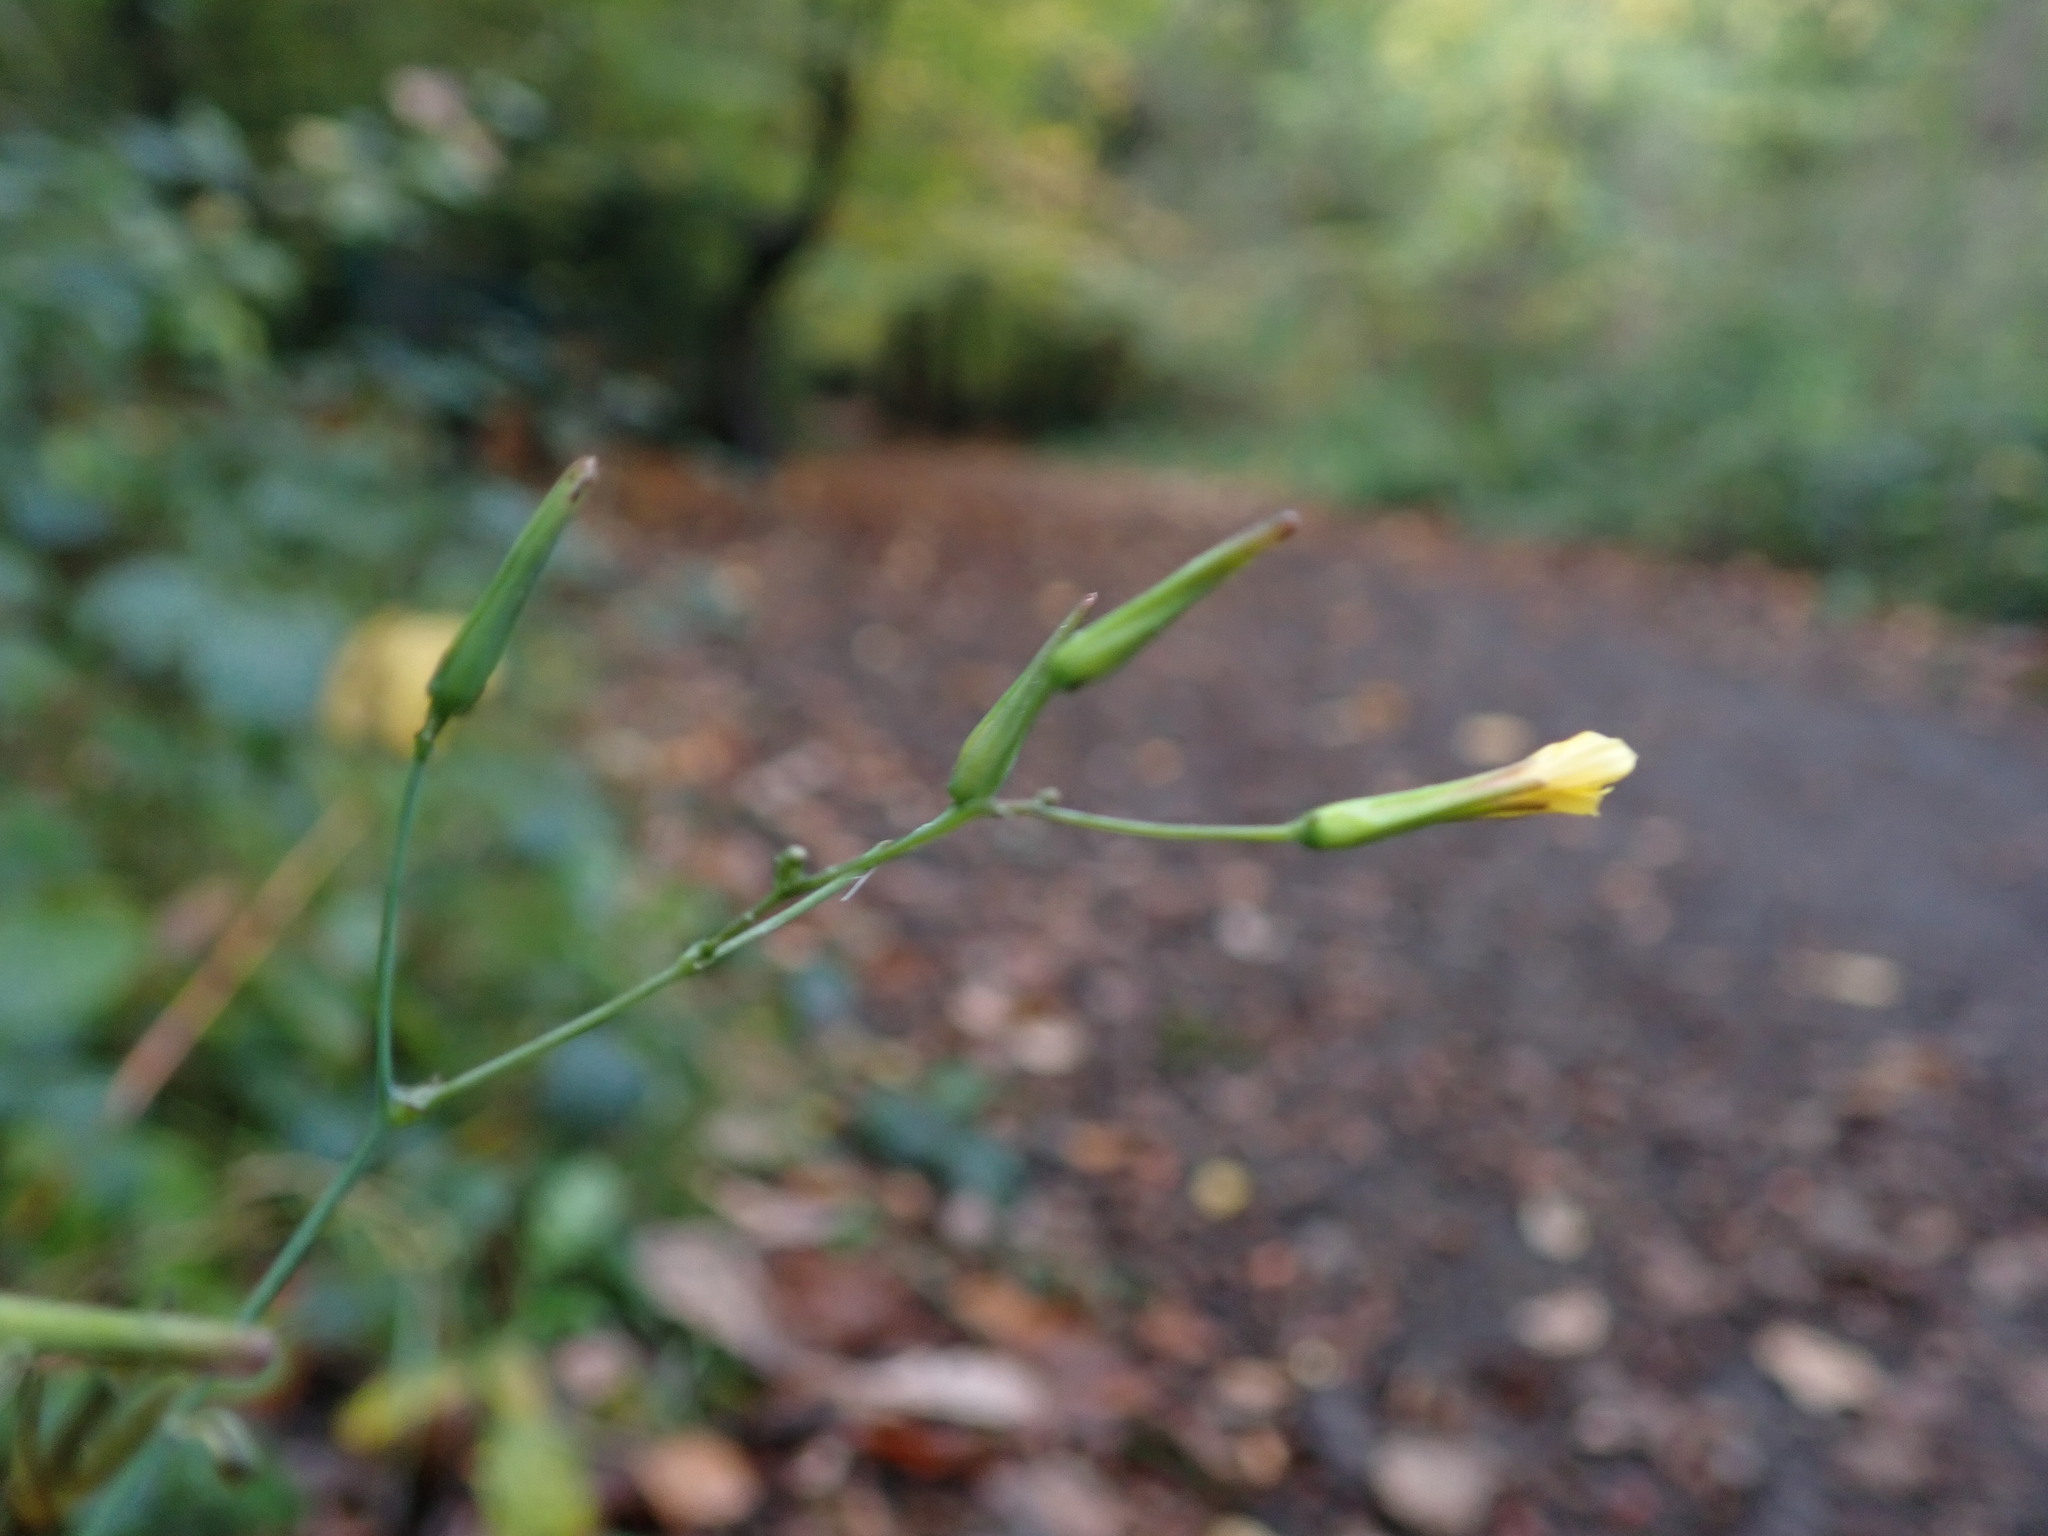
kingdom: Plantae
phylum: Tracheophyta
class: Magnoliopsida
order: Asterales
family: Asteraceae
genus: Mycelis
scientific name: Mycelis muralis
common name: Wall lettuce
